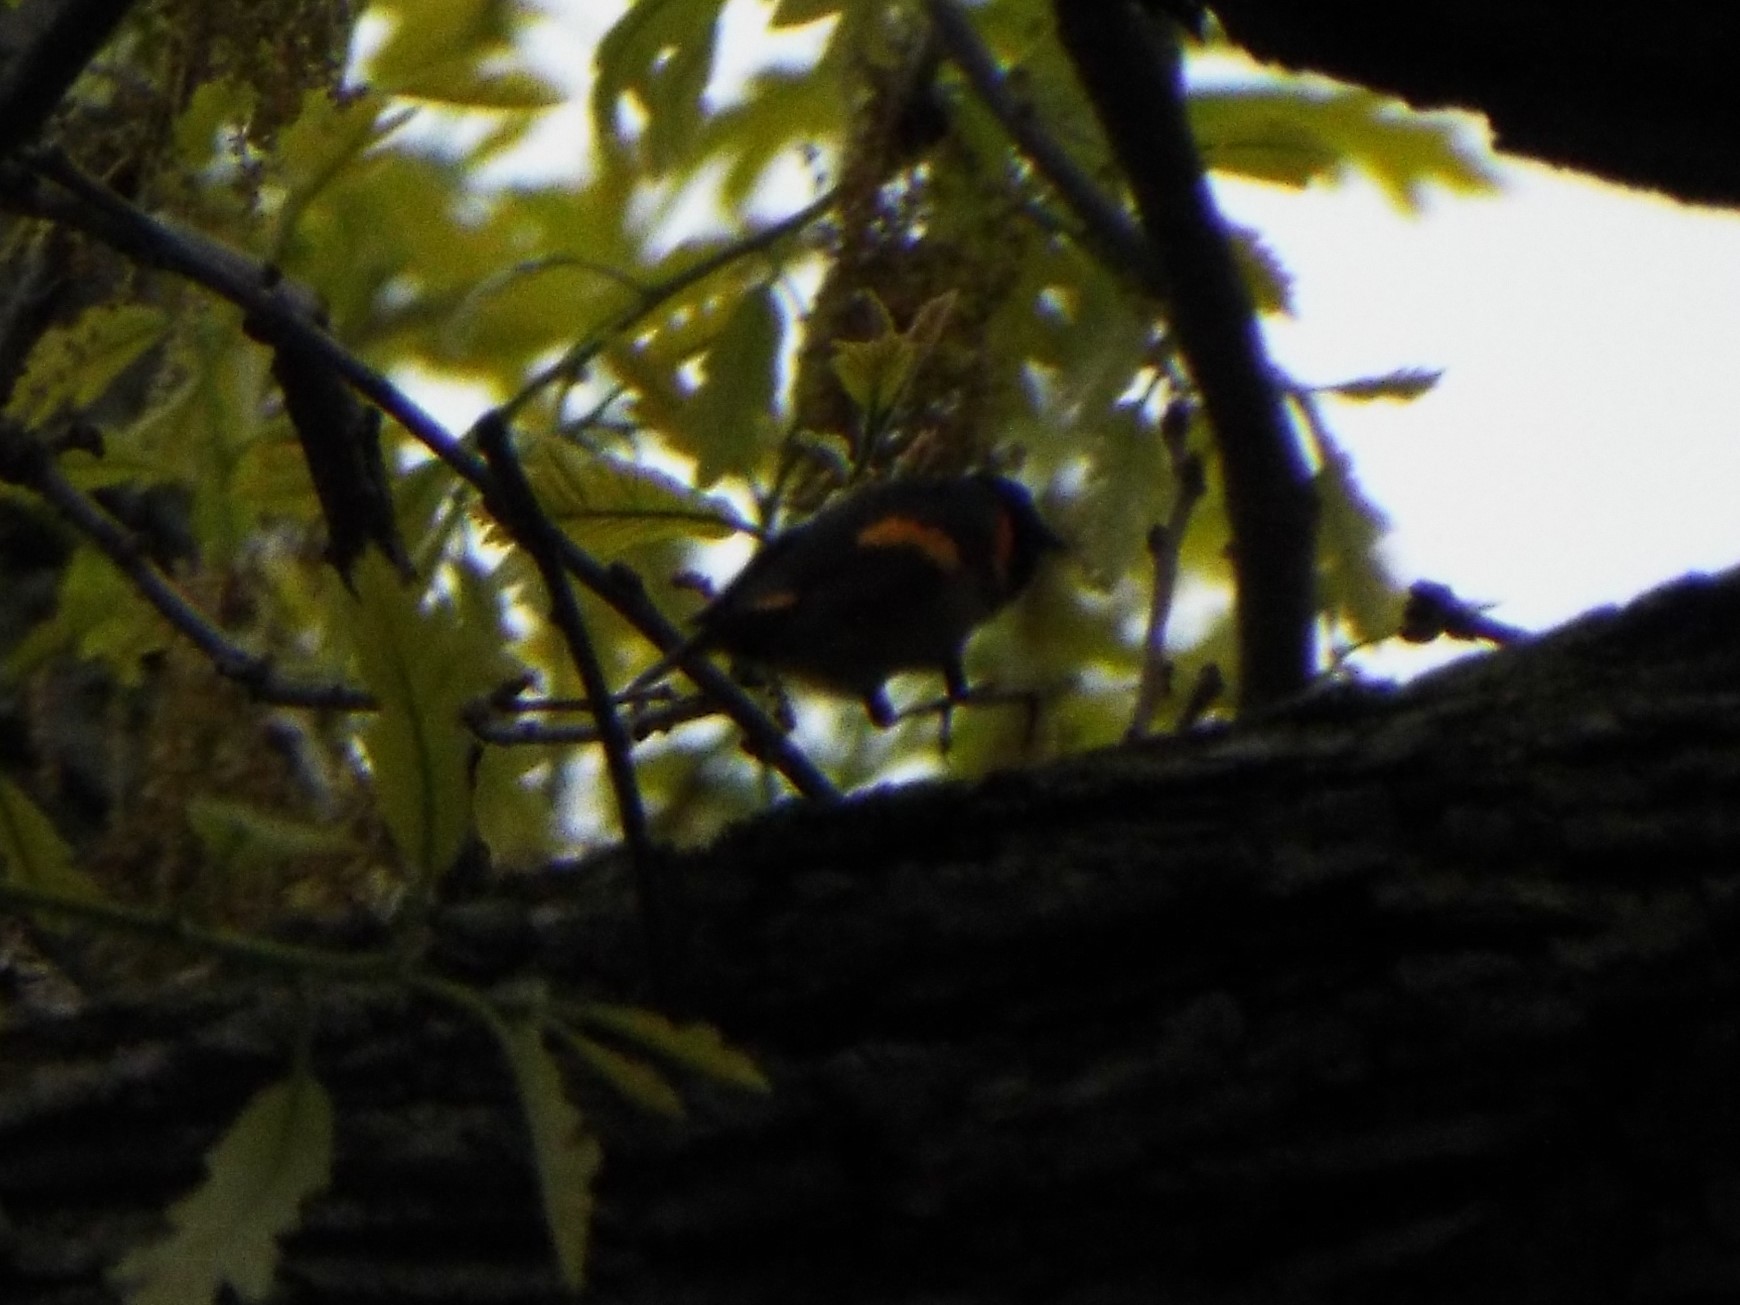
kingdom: Animalia
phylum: Chordata
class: Aves
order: Passeriformes
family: Parulidae
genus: Setophaga
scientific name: Setophaga ruticilla
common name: American redstart
